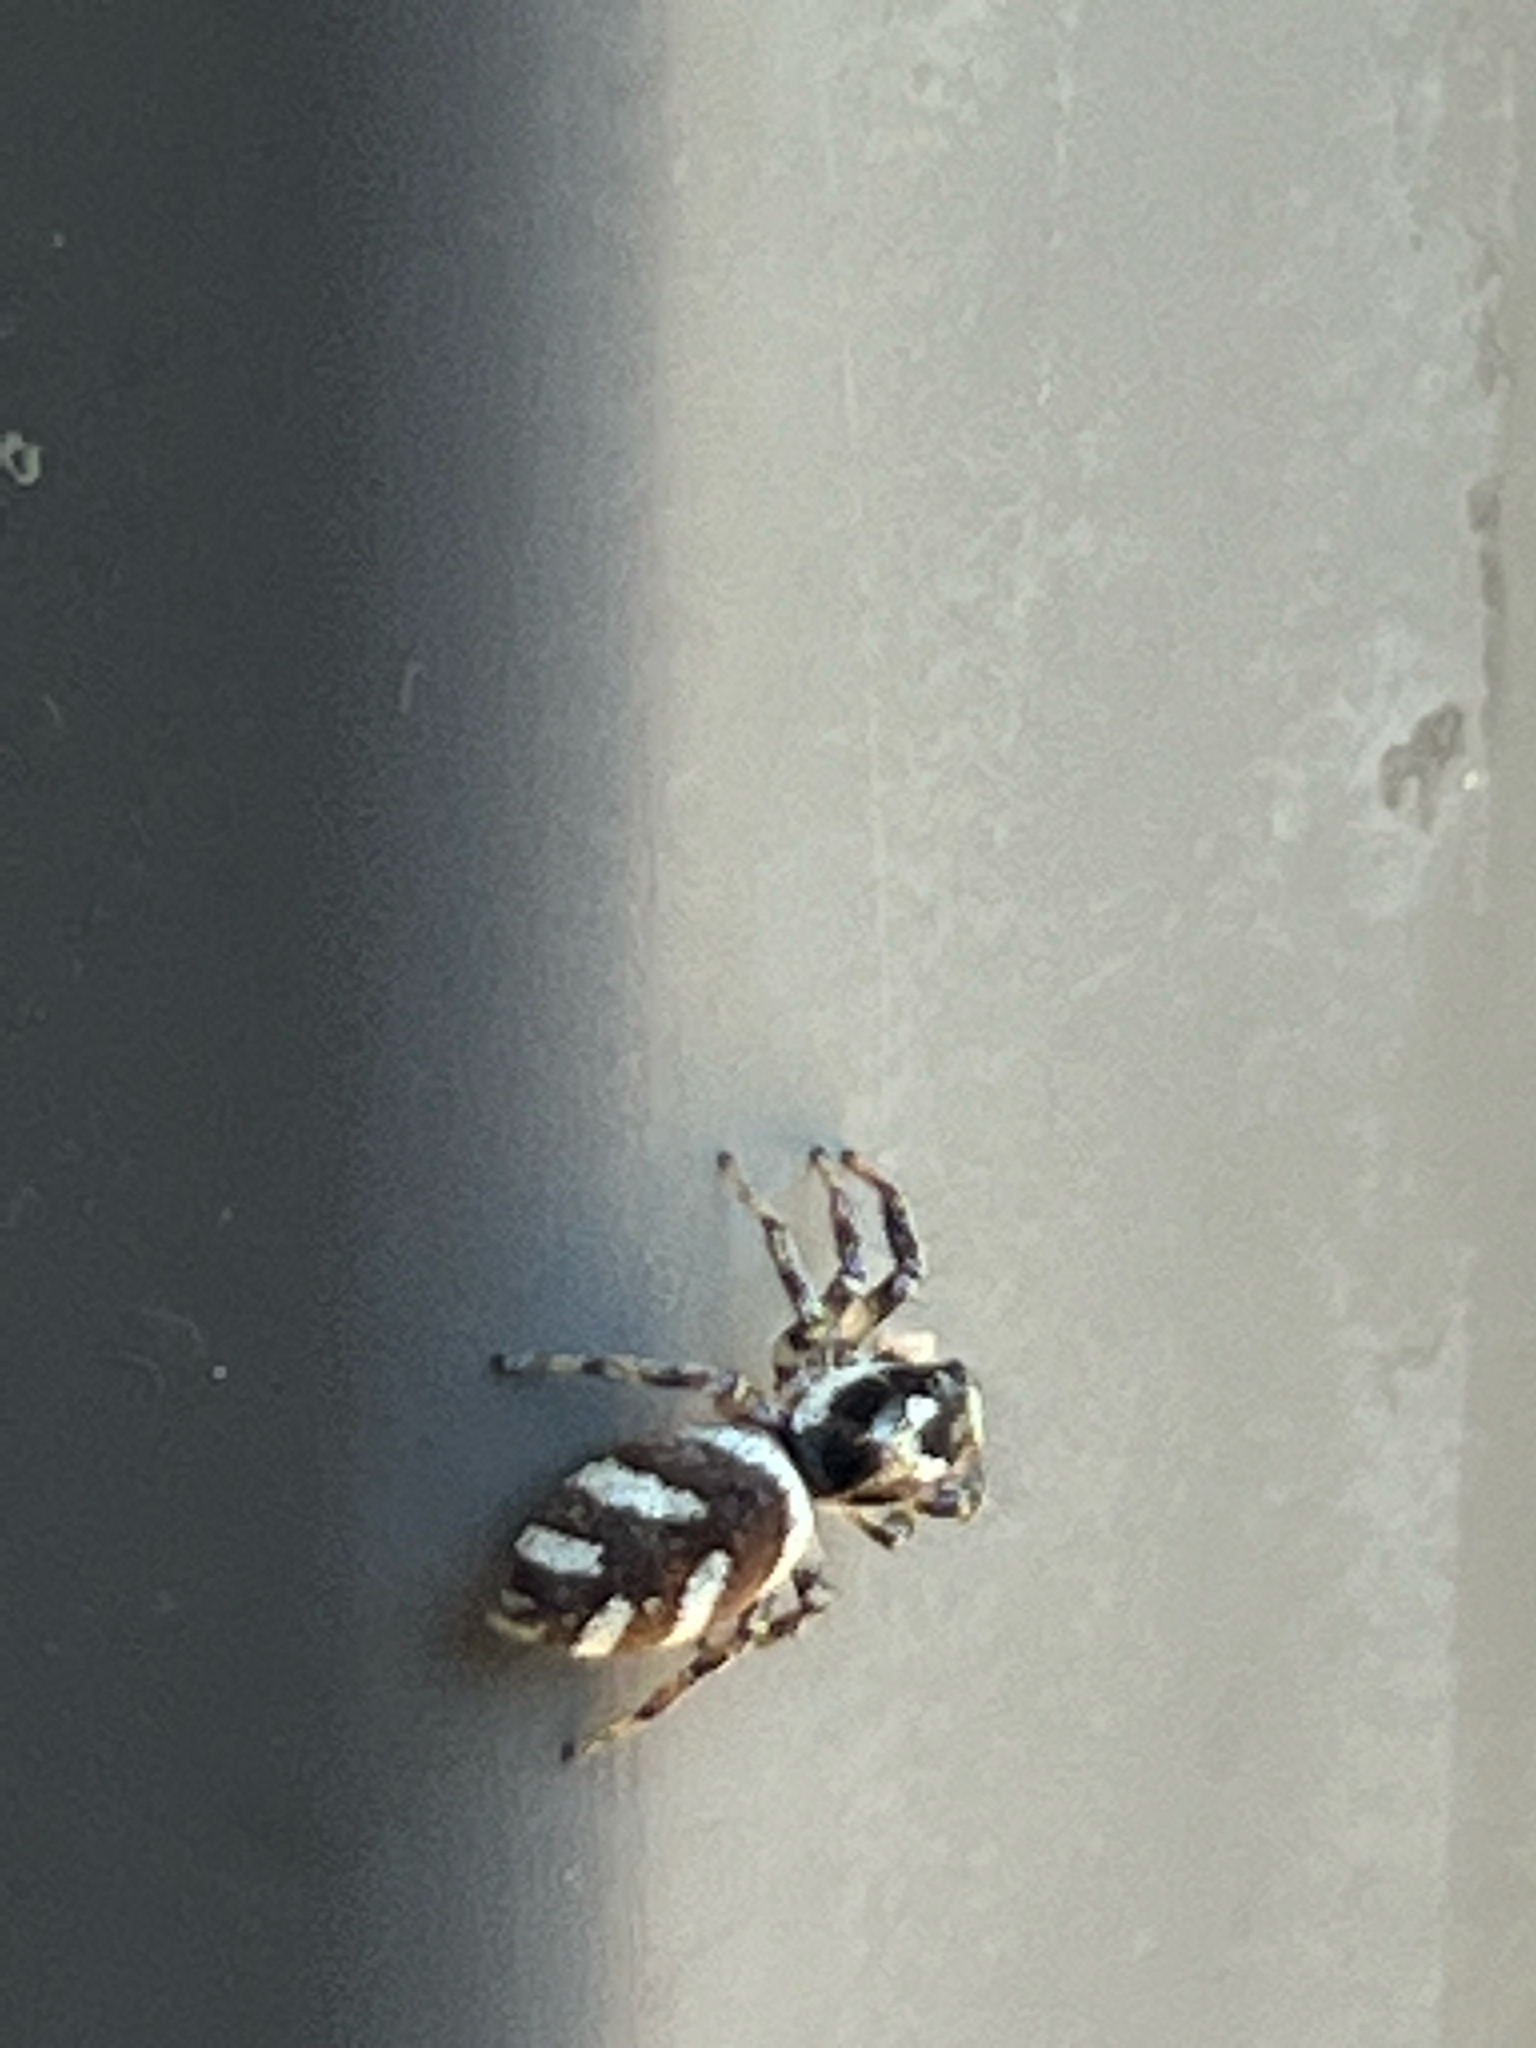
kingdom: Animalia
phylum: Arthropoda
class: Arachnida
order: Araneae
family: Salticidae
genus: Salticus
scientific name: Salticus scenicus
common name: Zebra jumper
